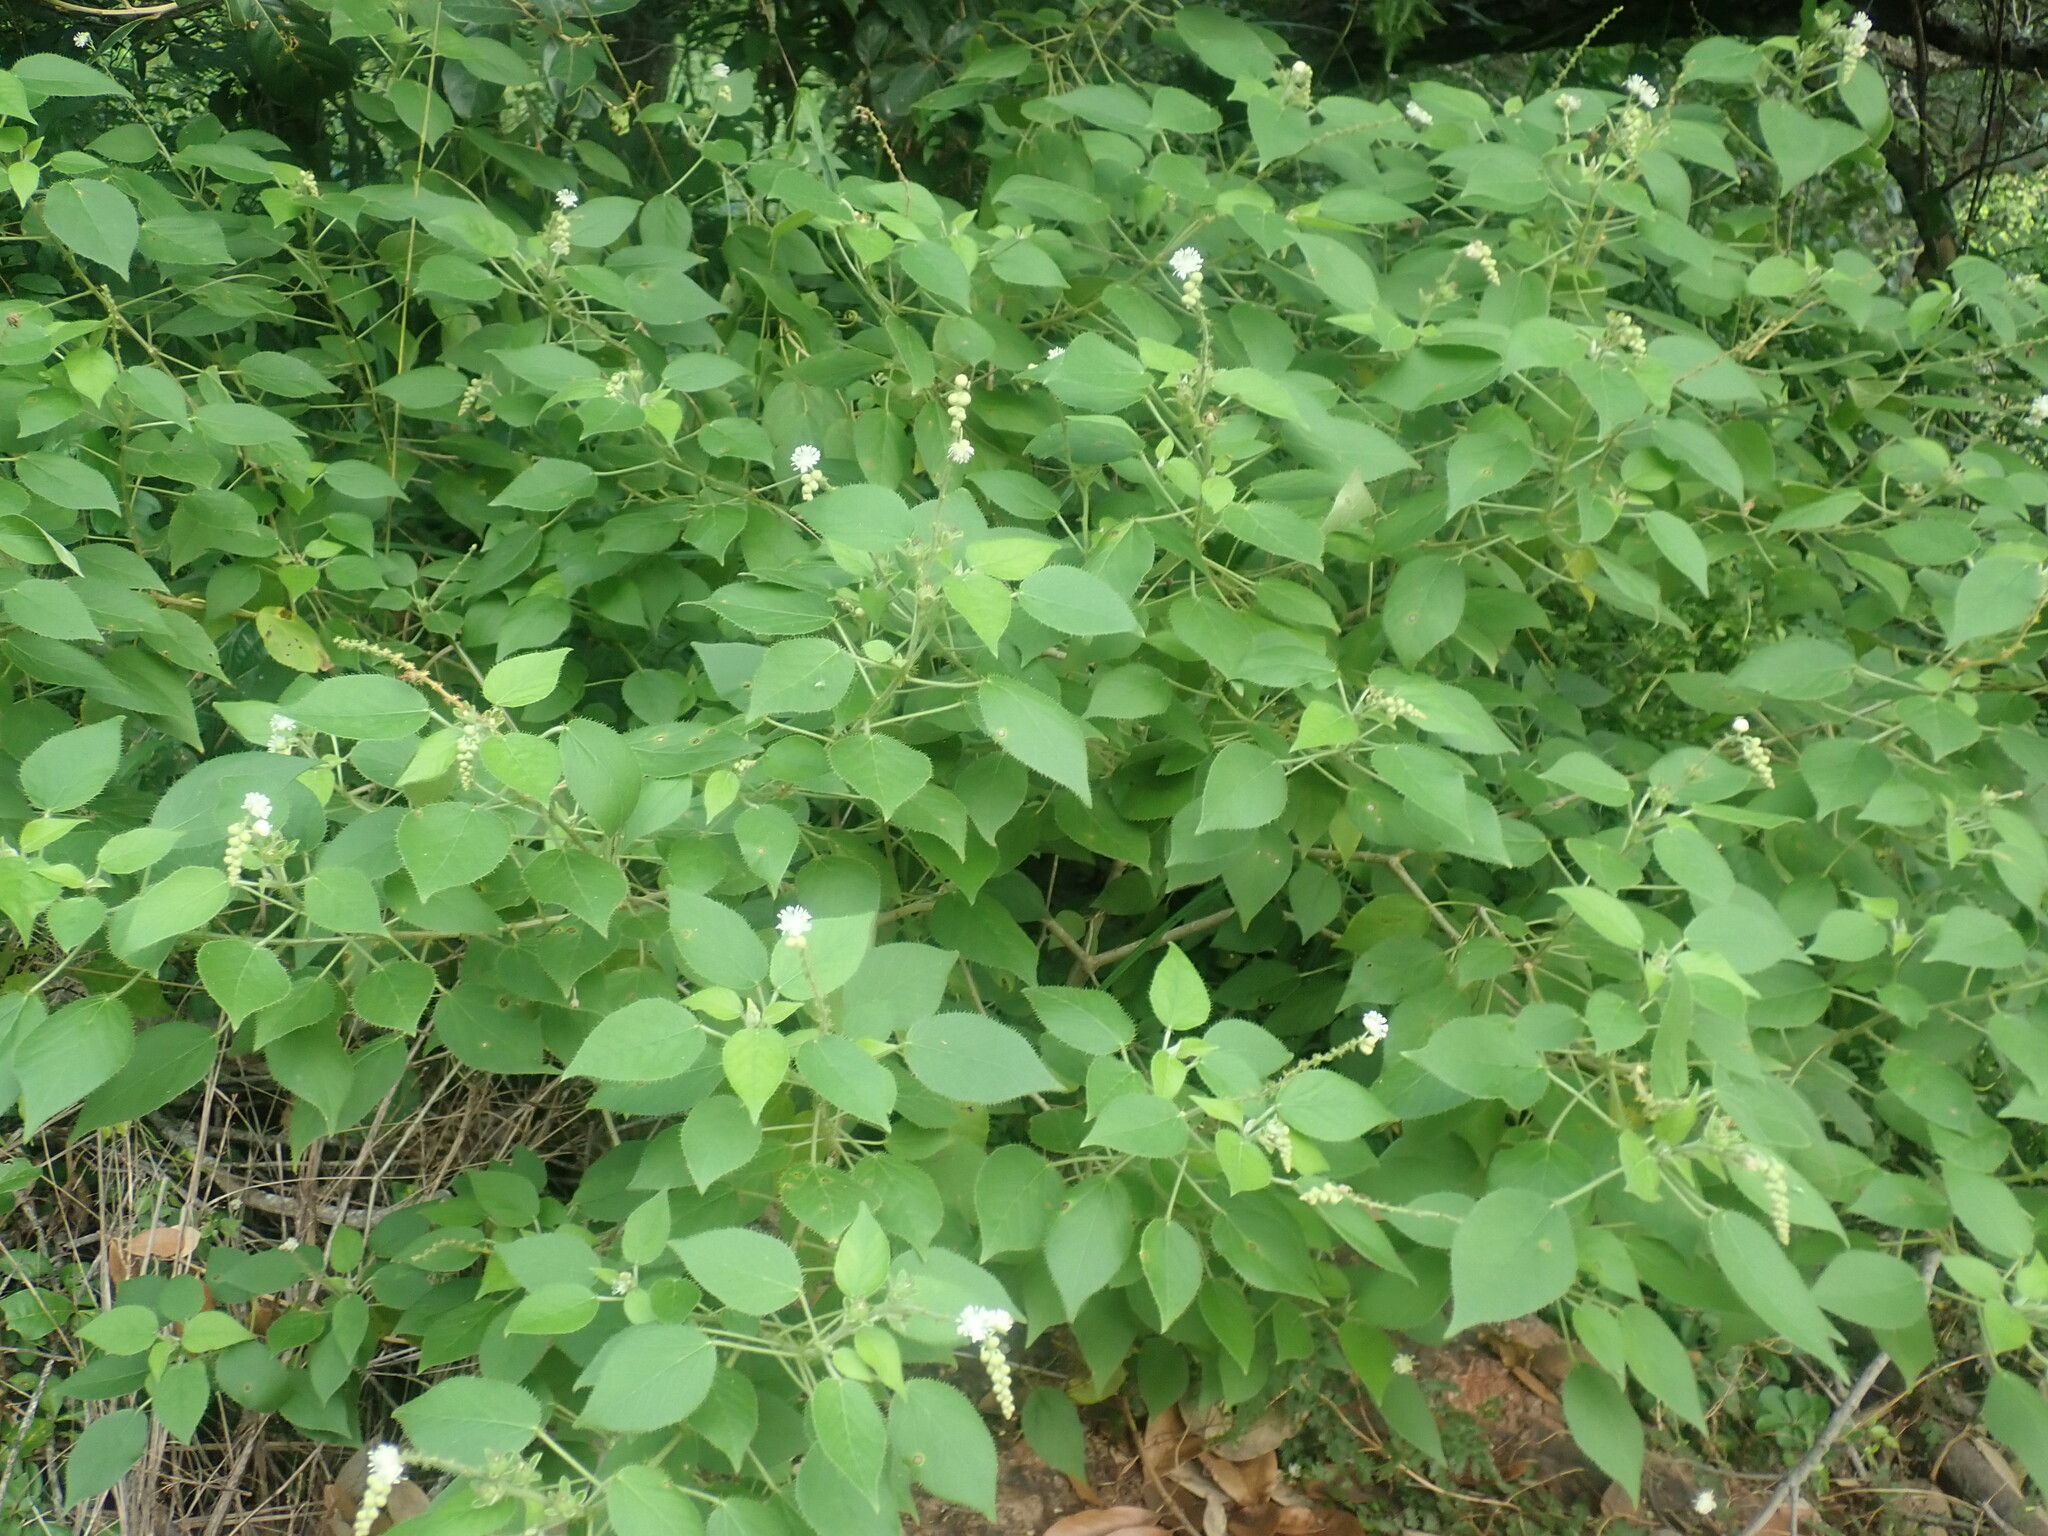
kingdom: Plantae
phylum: Tracheophyta
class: Magnoliopsida
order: Malpighiales
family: Euphorbiaceae
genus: Croton
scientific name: Croton ciliatoglandulifer
